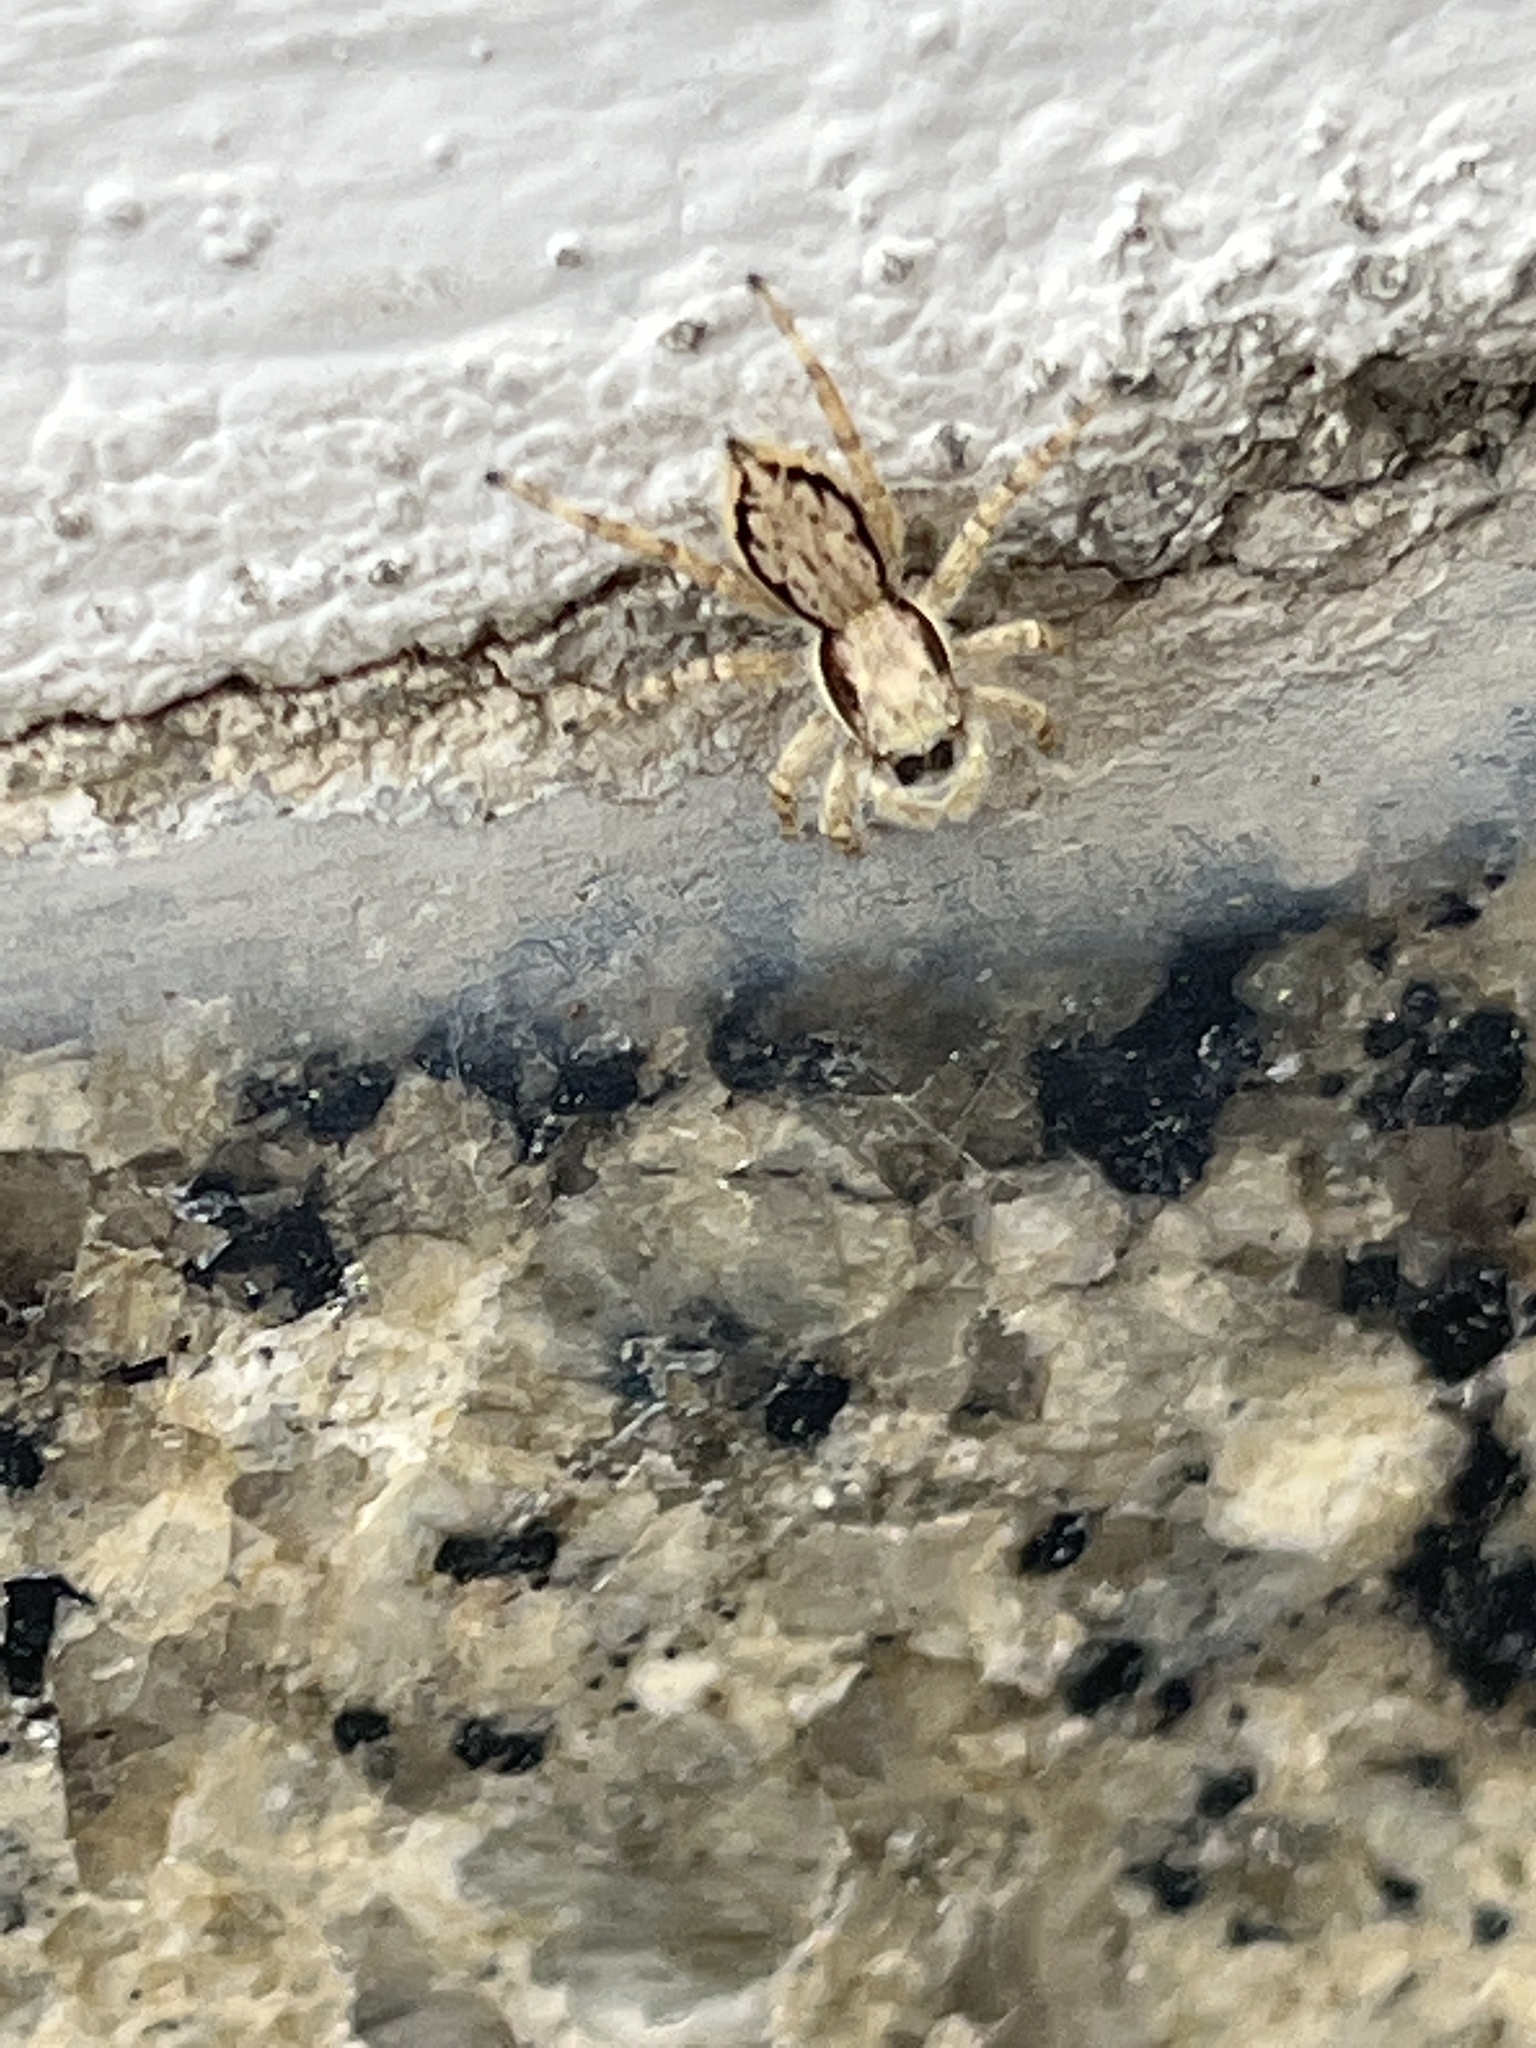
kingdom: Animalia
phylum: Arthropoda
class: Arachnida
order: Araneae
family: Salticidae
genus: Menemerus
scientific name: Menemerus bivittatus
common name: Gray wall jumper
